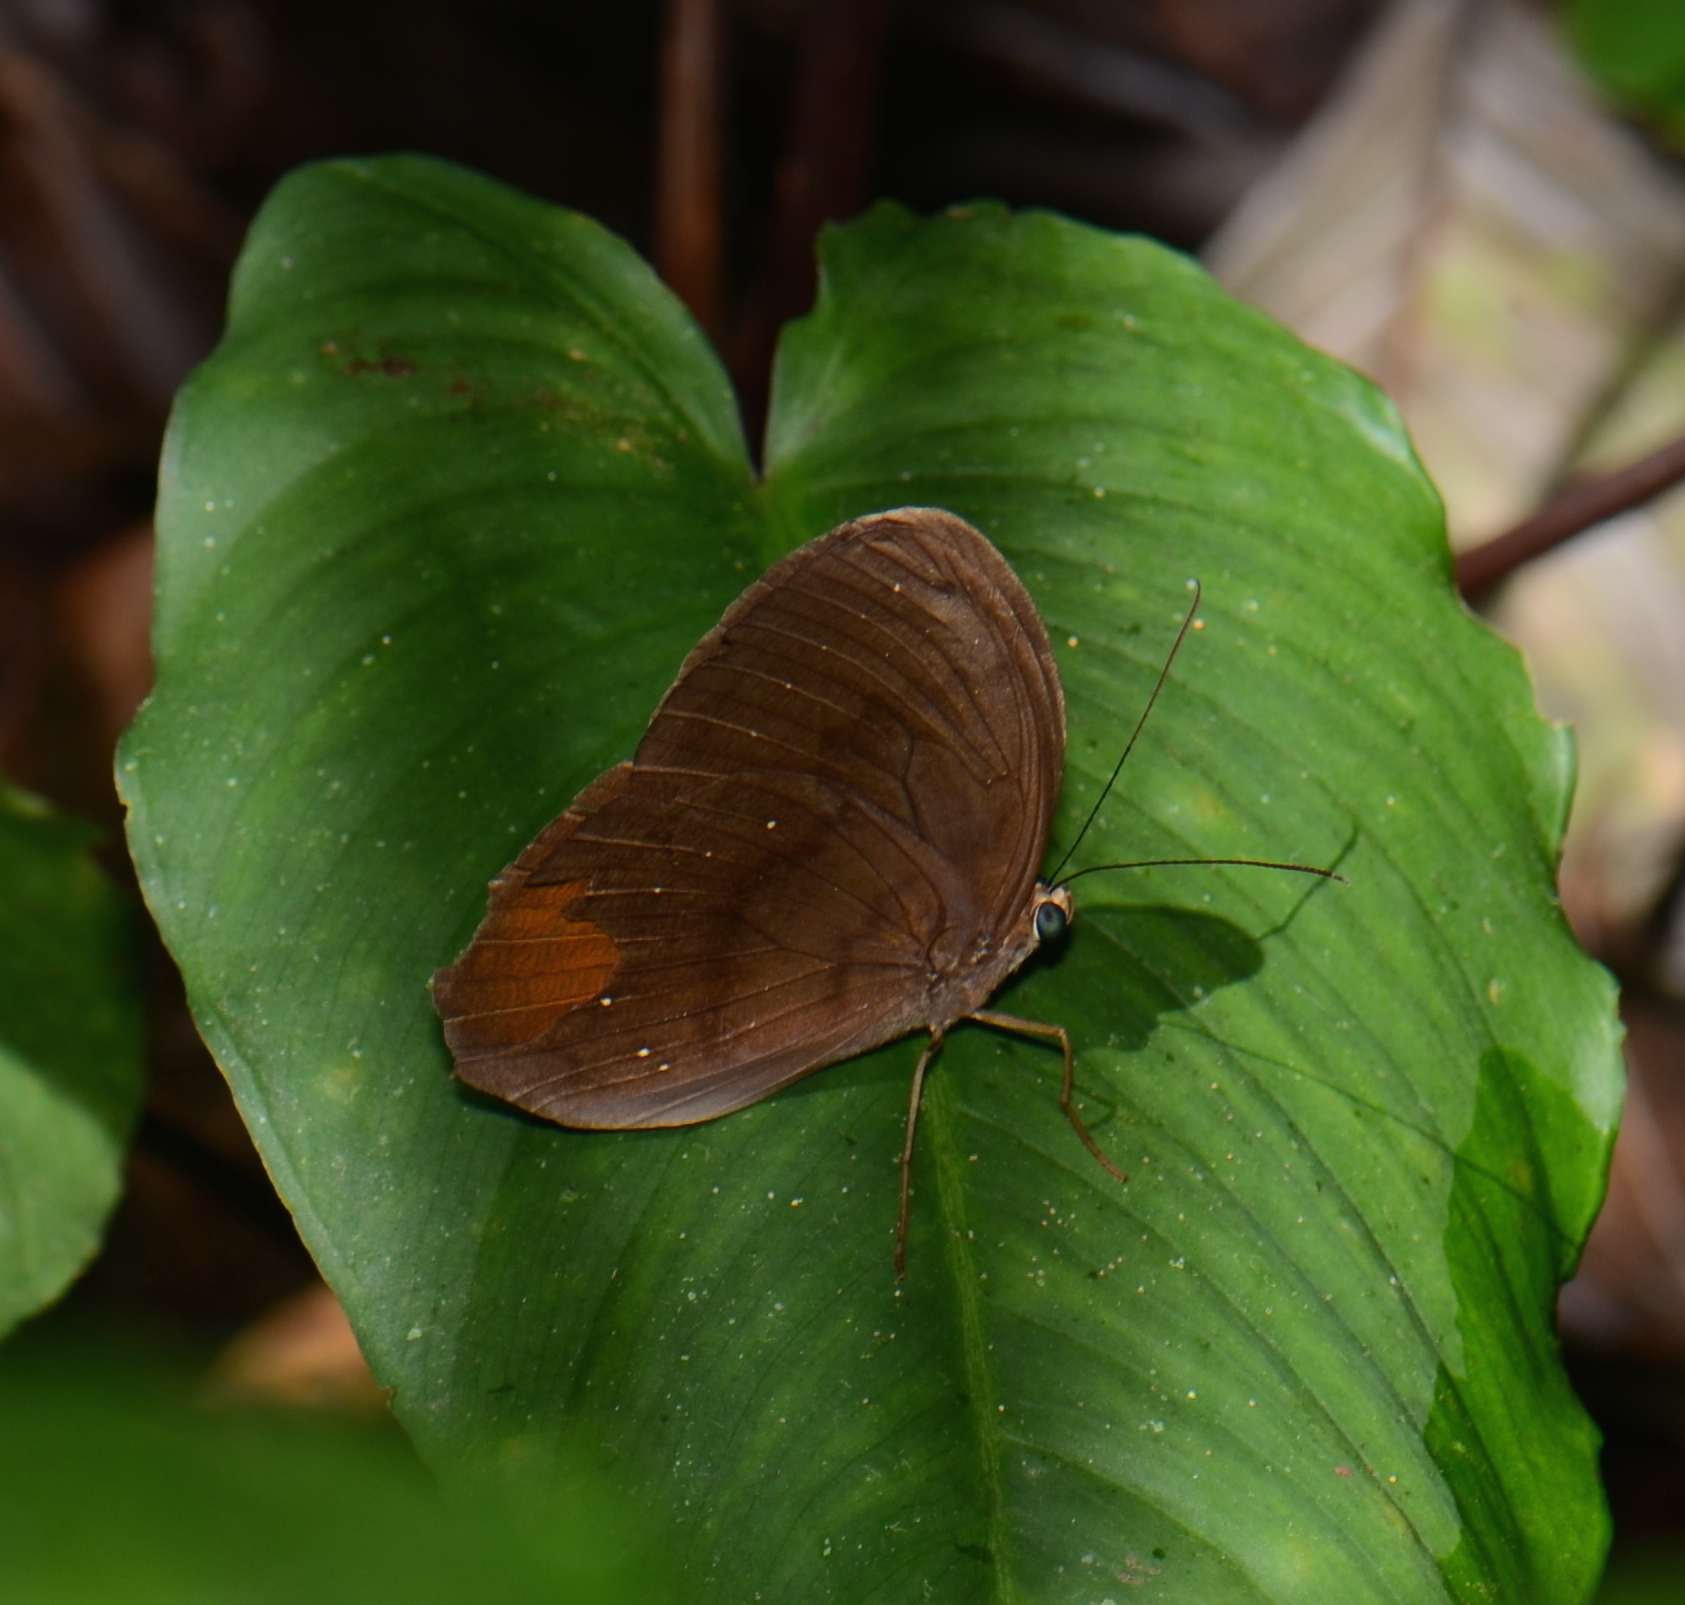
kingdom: Animalia
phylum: Arthropoda
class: Insecta
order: Lepidoptera
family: Nymphalidae
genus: Faunis
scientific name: Faunis canens
